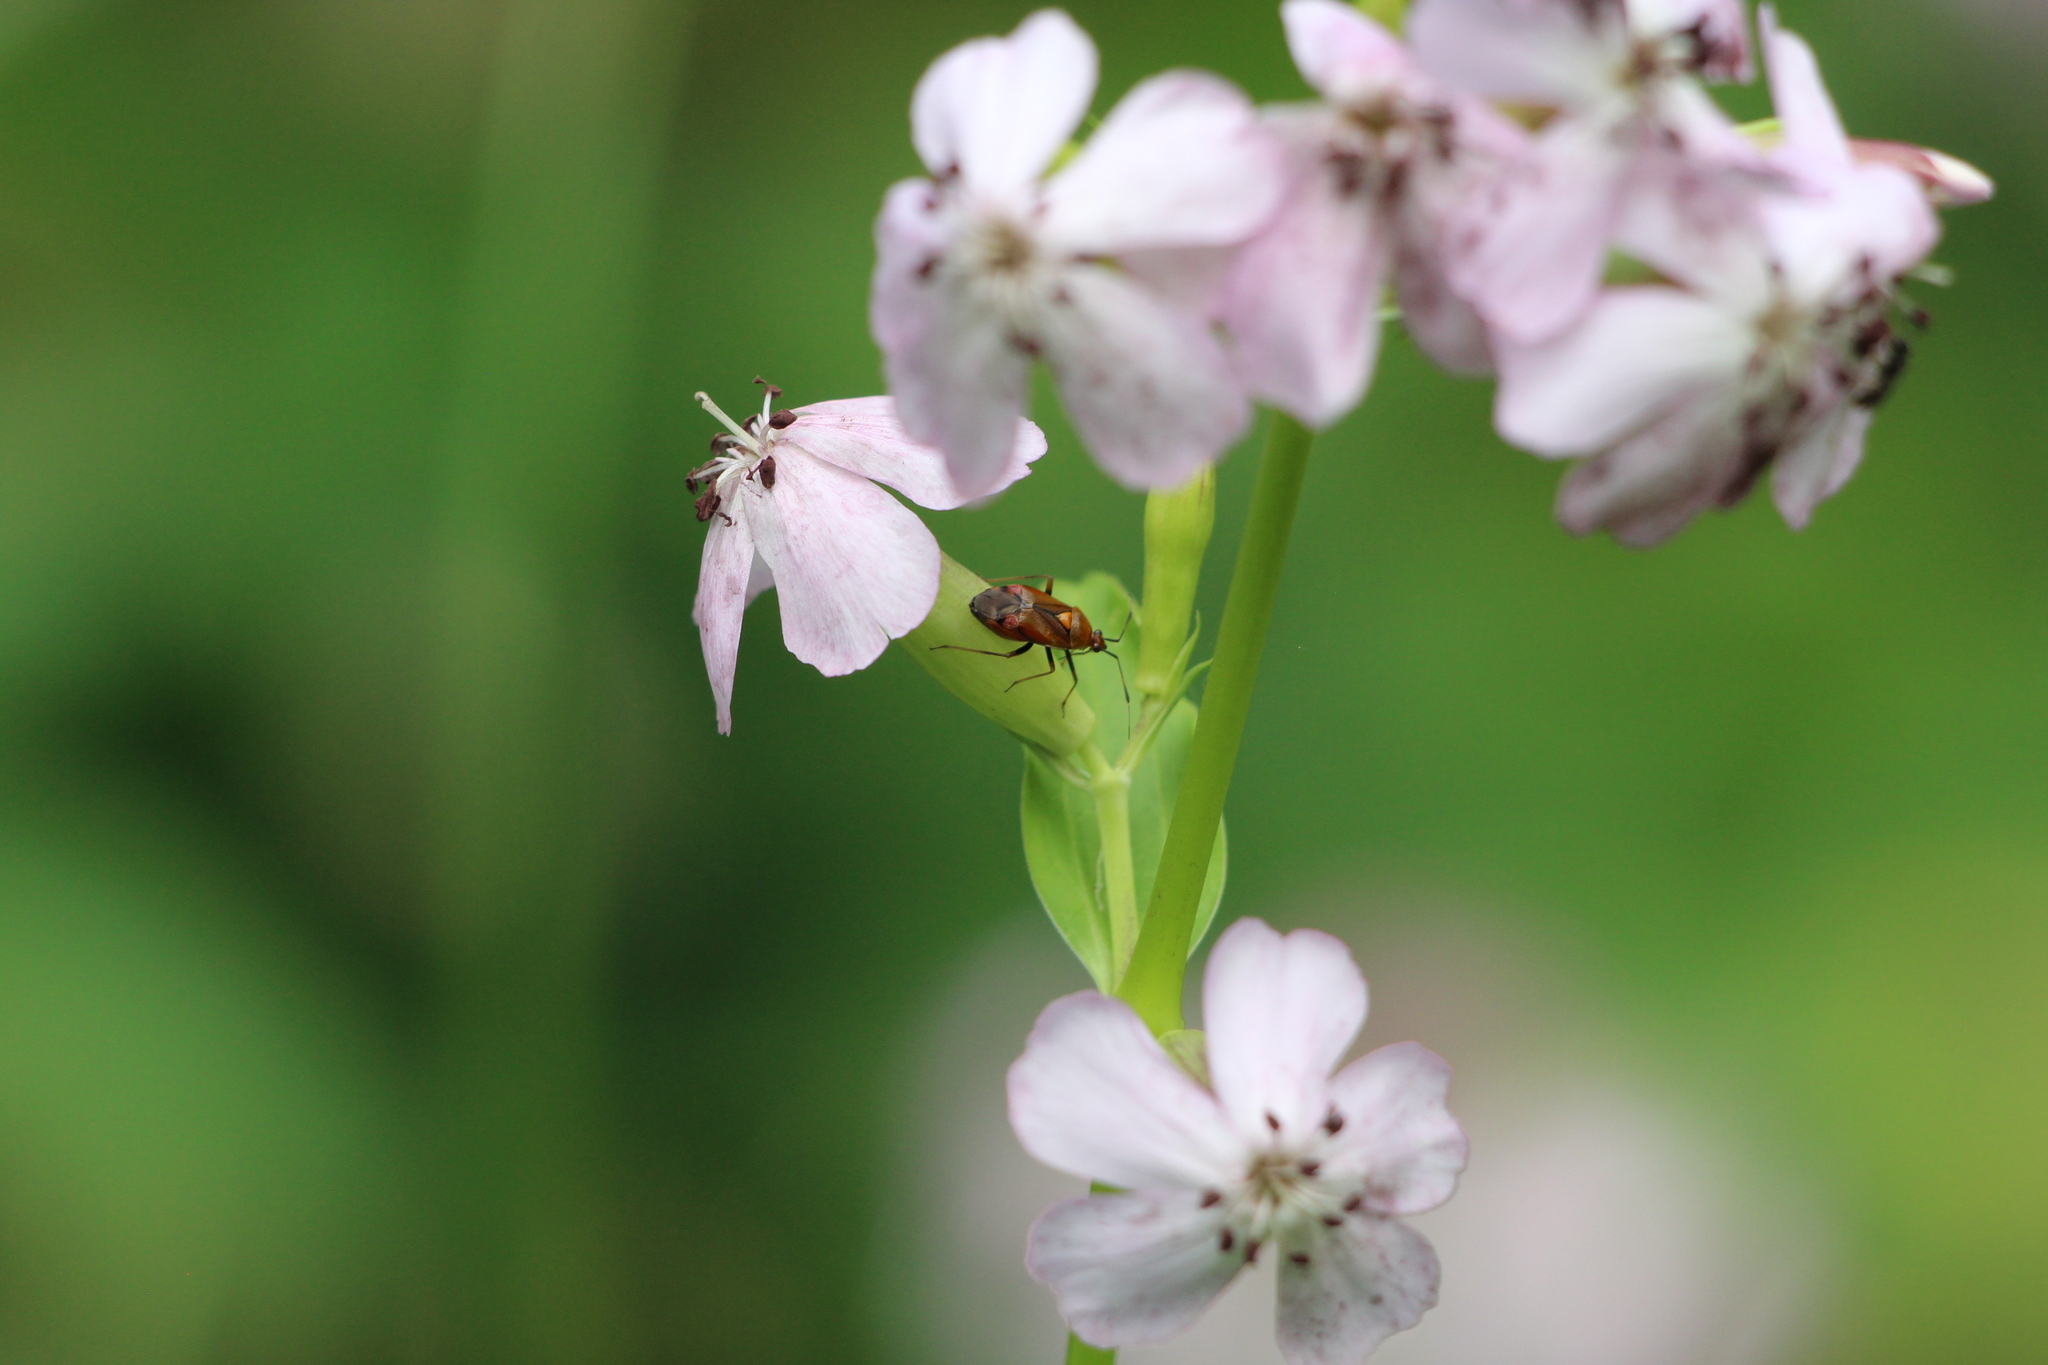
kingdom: Animalia
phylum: Arthropoda
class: Insecta
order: Hemiptera
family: Miridae
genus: Deraeocoris
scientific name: Deraeocoris ruber
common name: Plant bug
